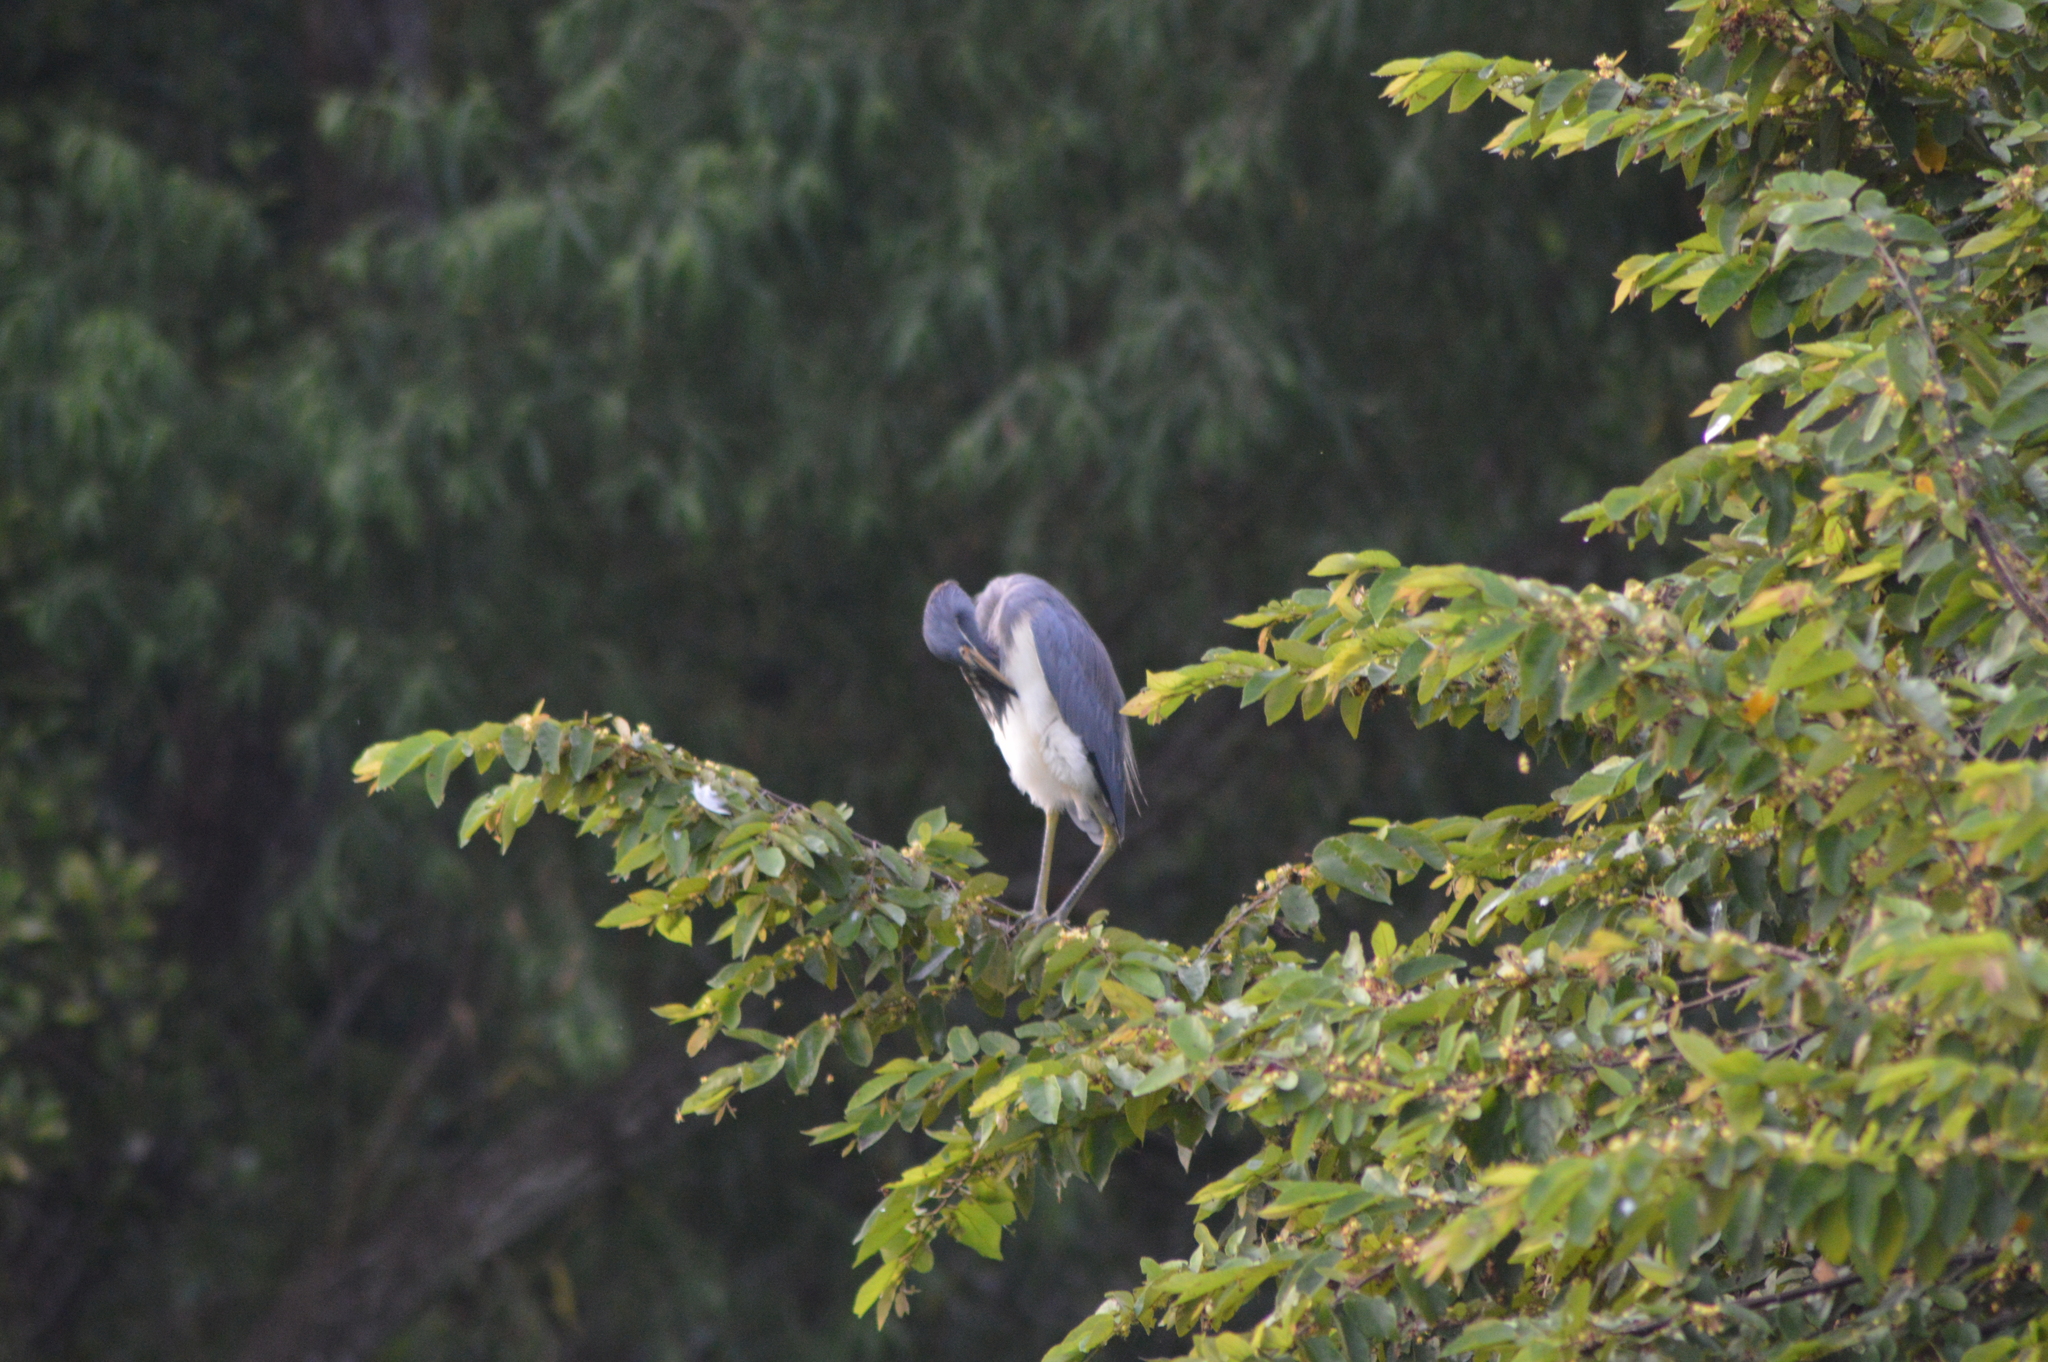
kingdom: Animalia
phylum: Chordata
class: Aves
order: Pelecaniformes
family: Ardeidae
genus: Egretta
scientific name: Egretta tricolor
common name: Tricolored heron
